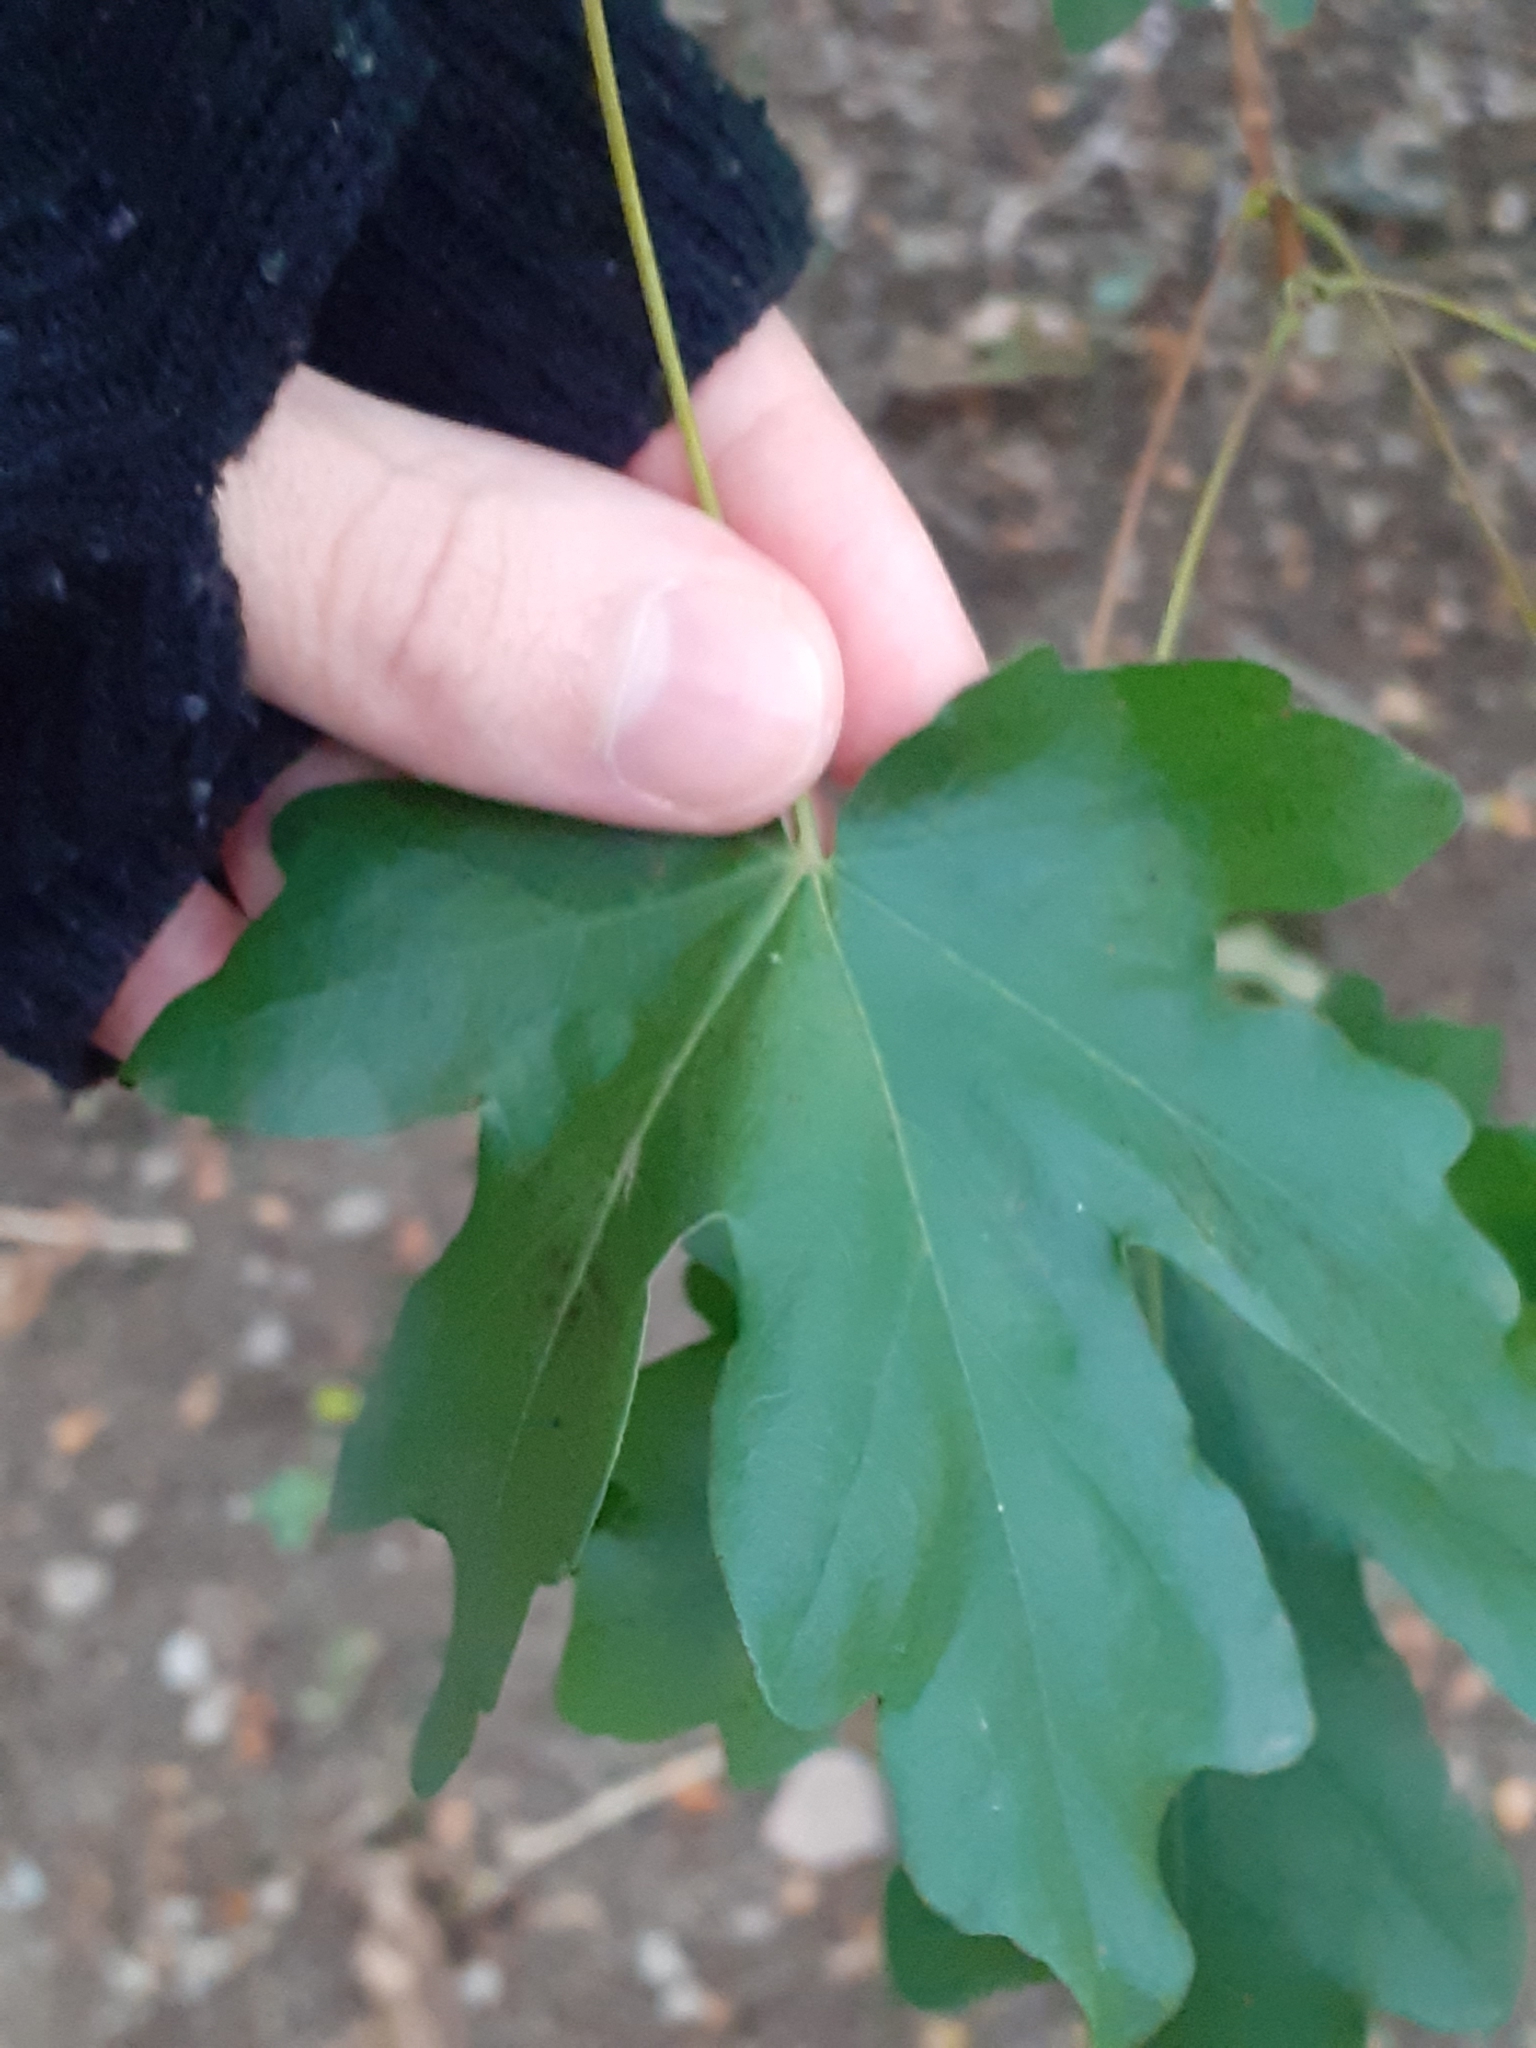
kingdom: Plantae
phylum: Tracheophyta
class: Magnoliopsida
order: Sapindales
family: Sapindaceae
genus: Acer
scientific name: Acer campestre
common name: Field maple
